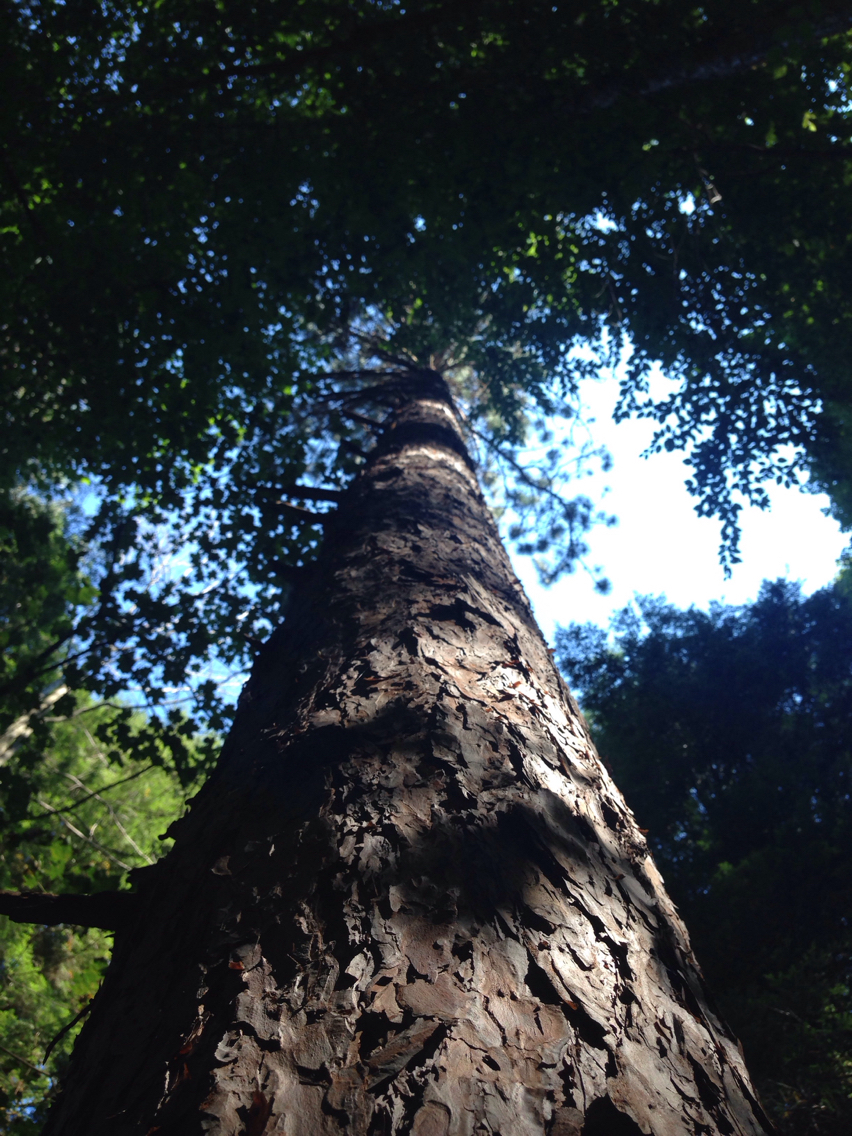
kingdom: Plantae
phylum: Tracheophyta
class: Pinopsida
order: Pinales
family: Pinaceae
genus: Pinus
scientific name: Pinus resinosa
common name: Norway pine
